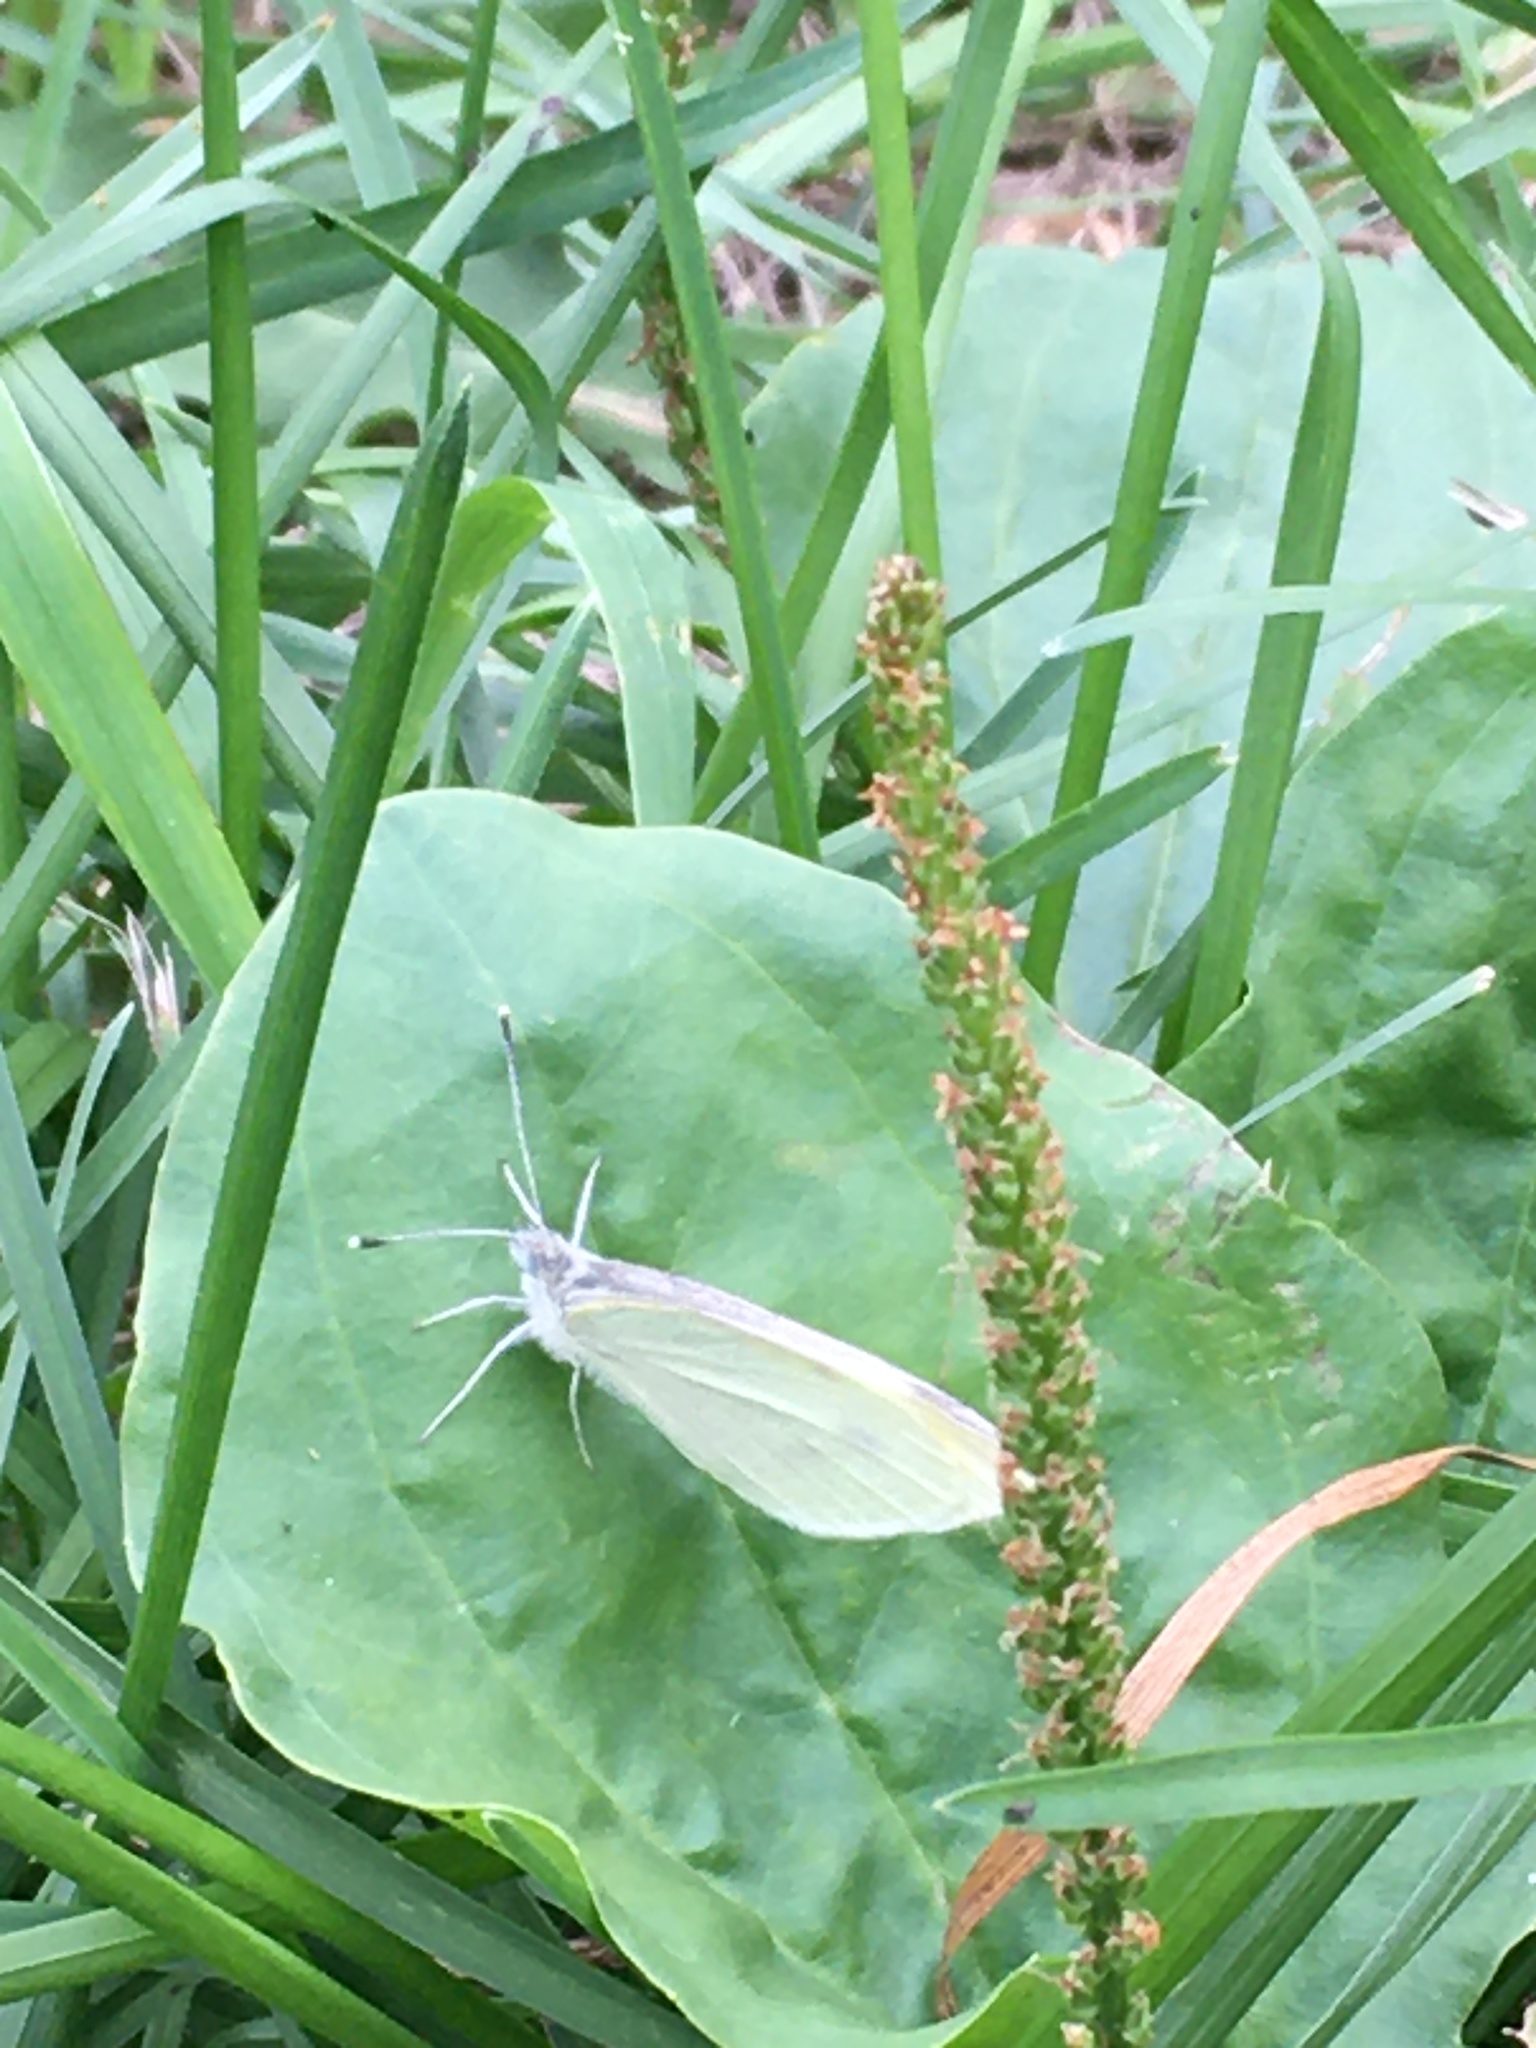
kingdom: Animalia
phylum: Arthropoda
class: Insecta
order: Lepidoptera
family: Pieridae
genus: Pieris
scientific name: Pieris rapae
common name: Small white
